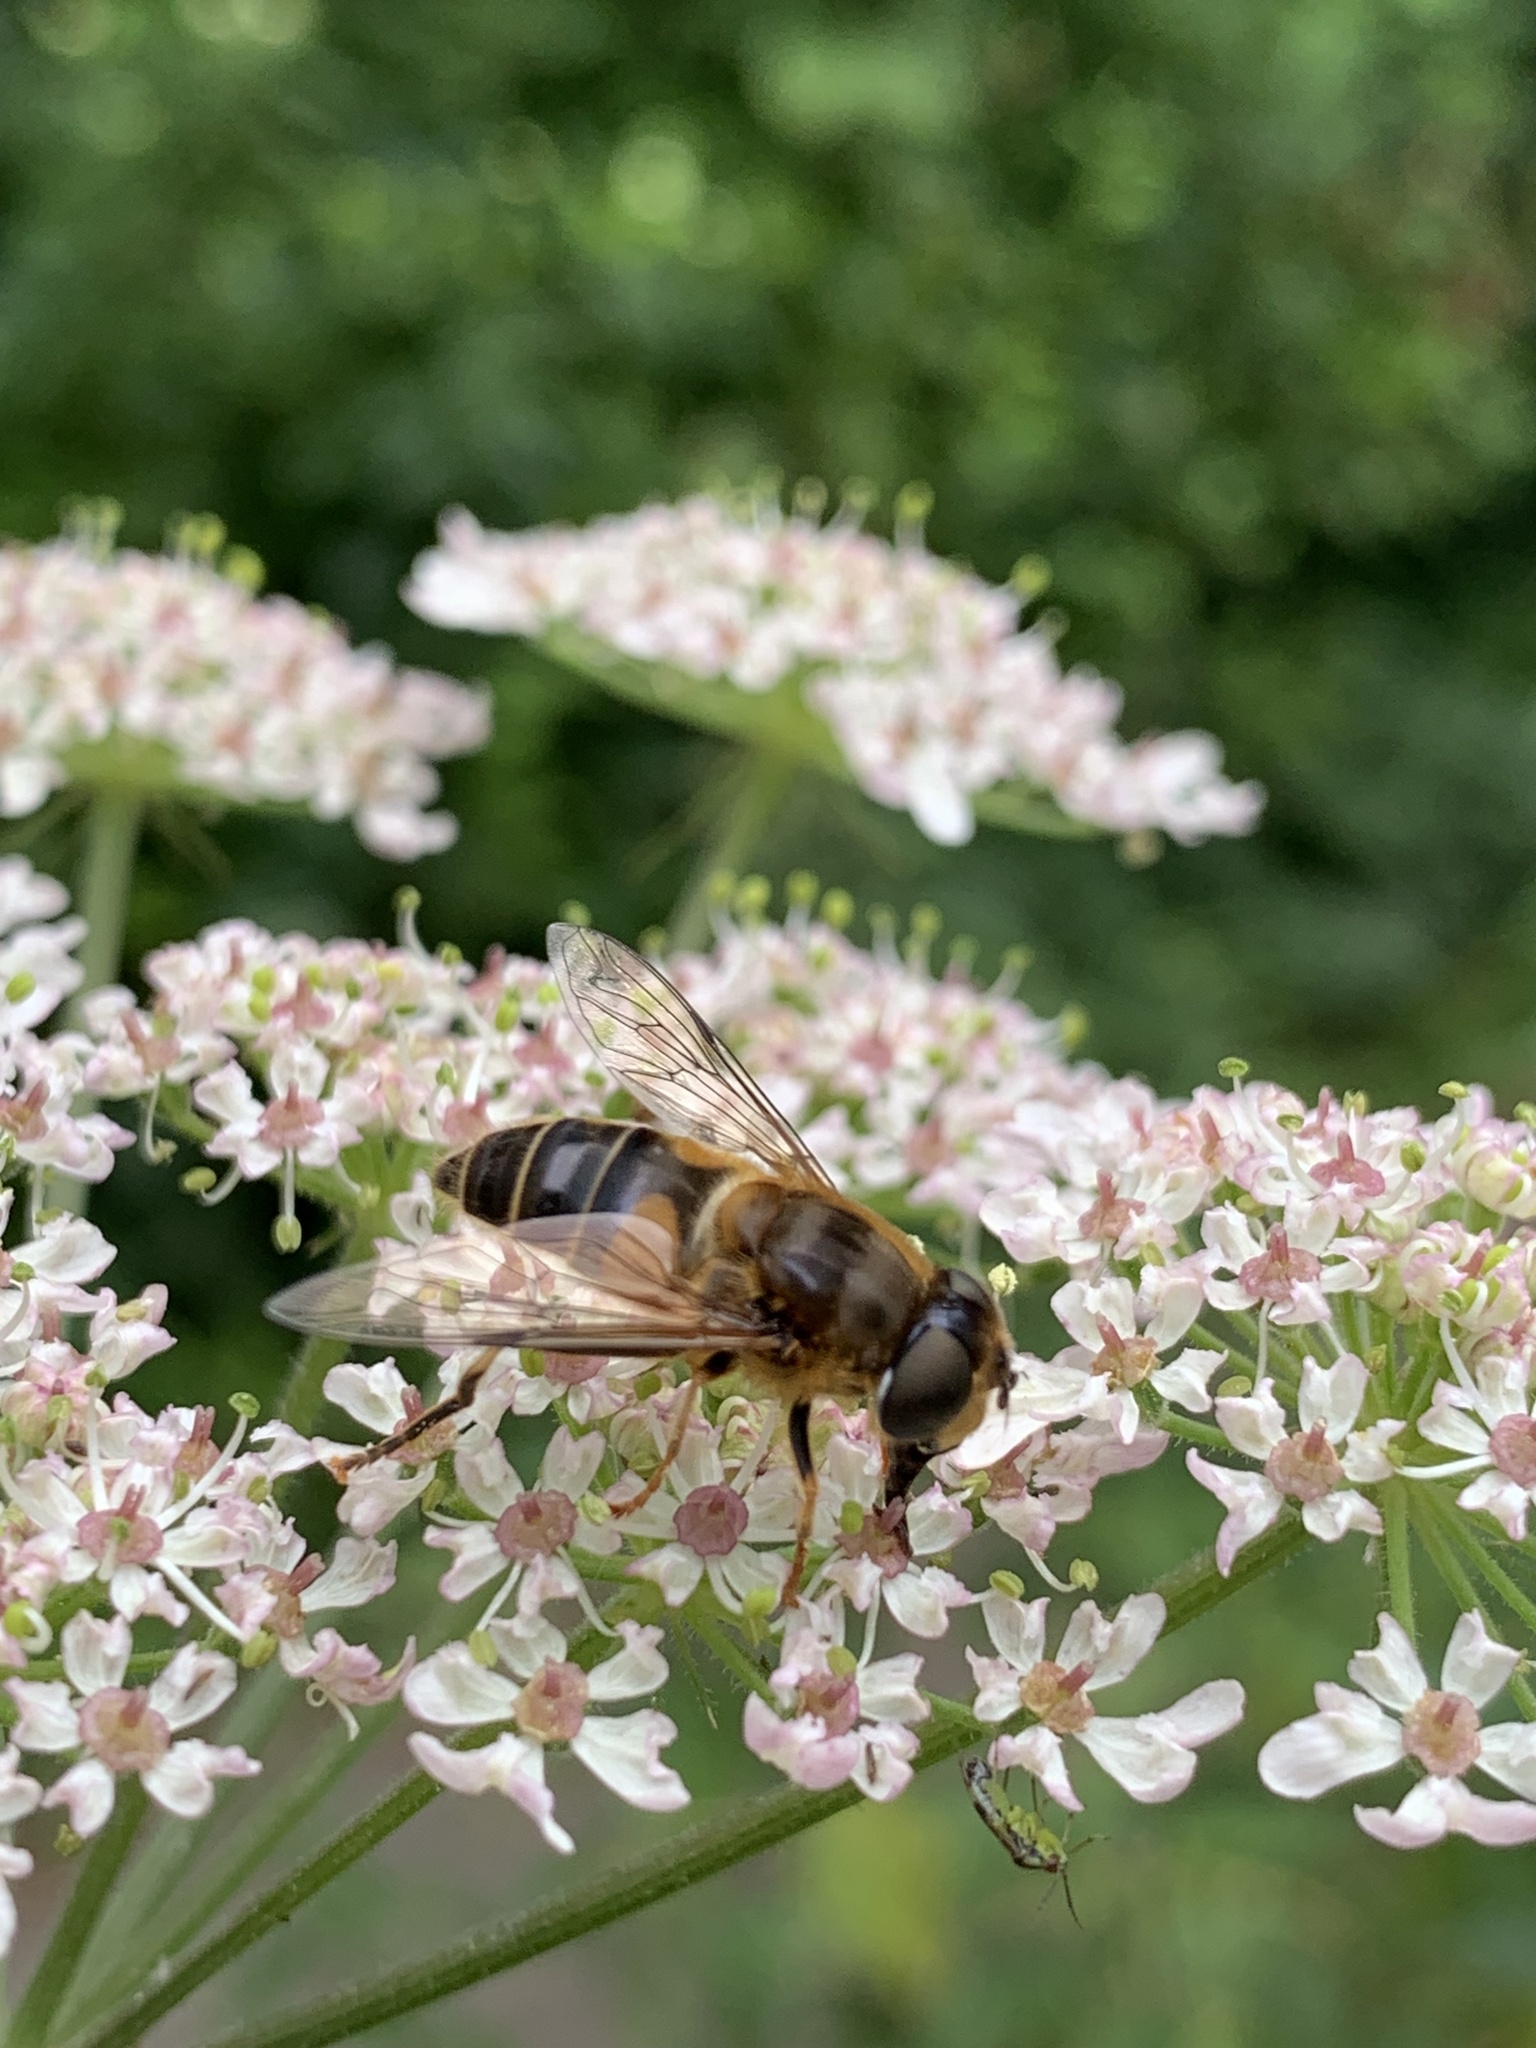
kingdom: Animalia
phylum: Arthropoda
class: Insecta
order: Diptera
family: Syrphidae
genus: Eristalis
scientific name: Eristalis pertinax
